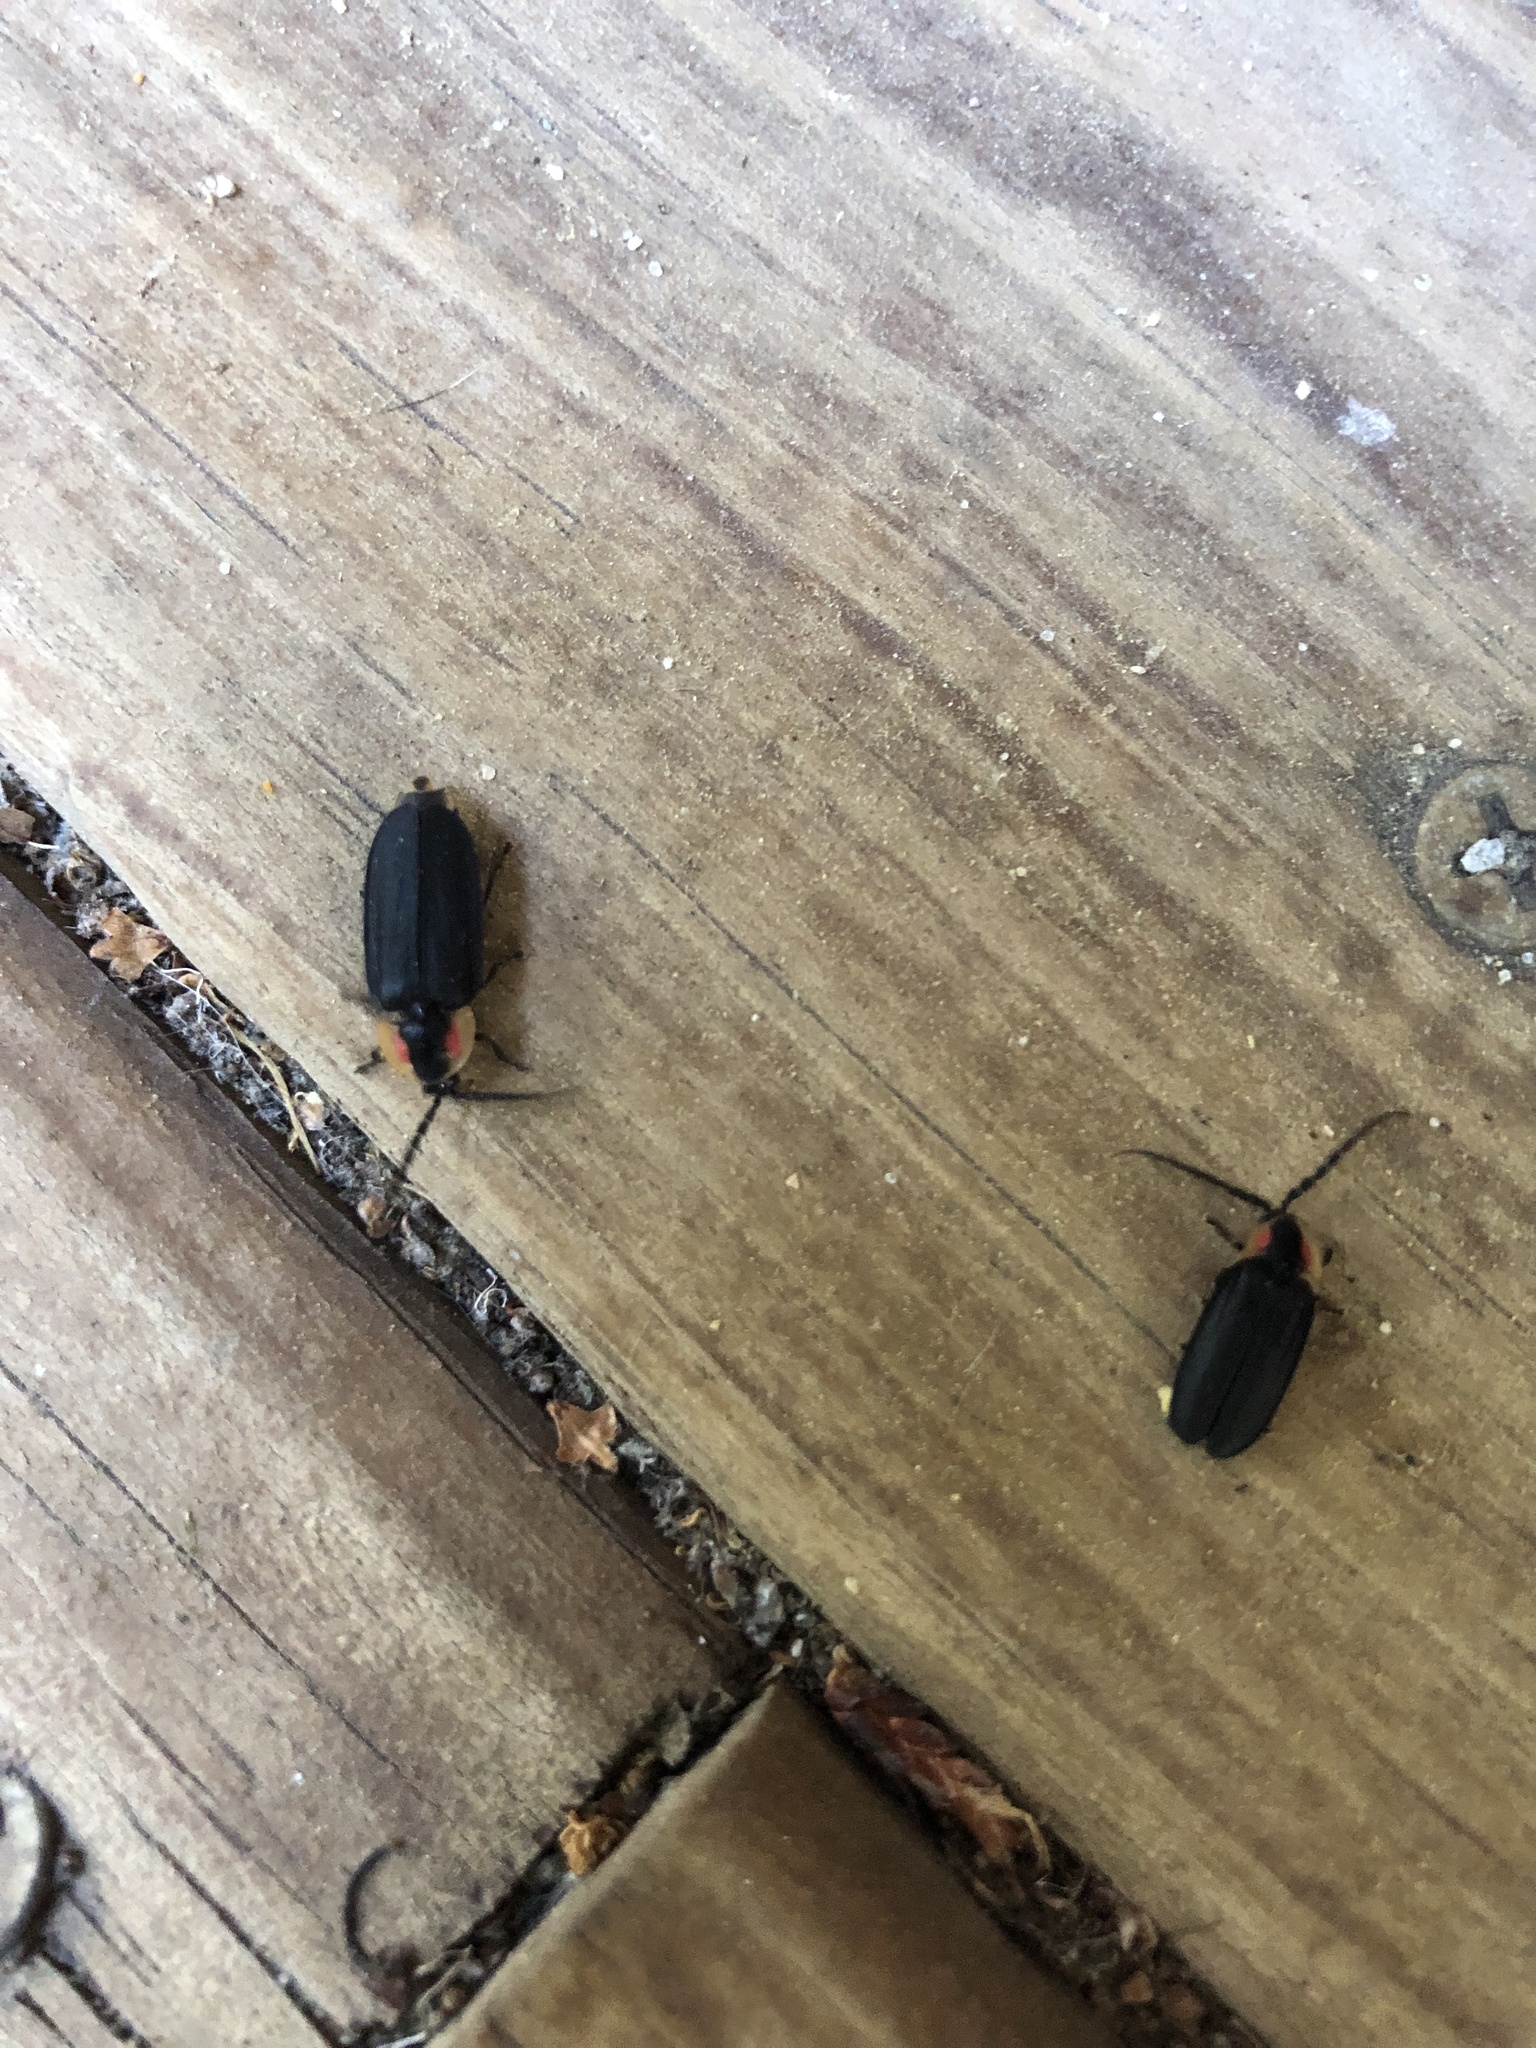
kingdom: Animalia
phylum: Arthropoda
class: Insecta
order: Coleoptera
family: Lampyridae
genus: Lucidota
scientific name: Lucidota atra
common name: Black firefly
